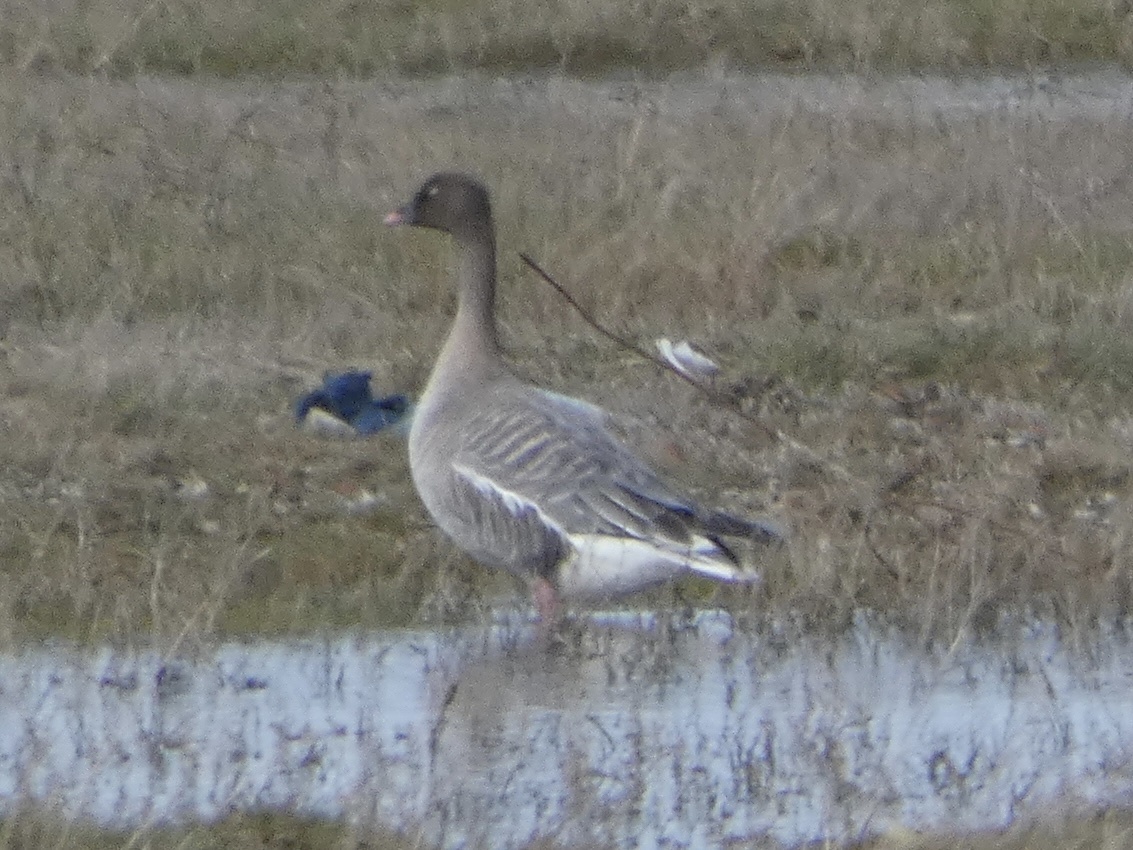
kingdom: Animalia
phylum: Chordata
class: Aves
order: Anseriformes
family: Anatidae
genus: Anser
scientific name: Anser brachyrhynchus
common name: Pink-footed goose
